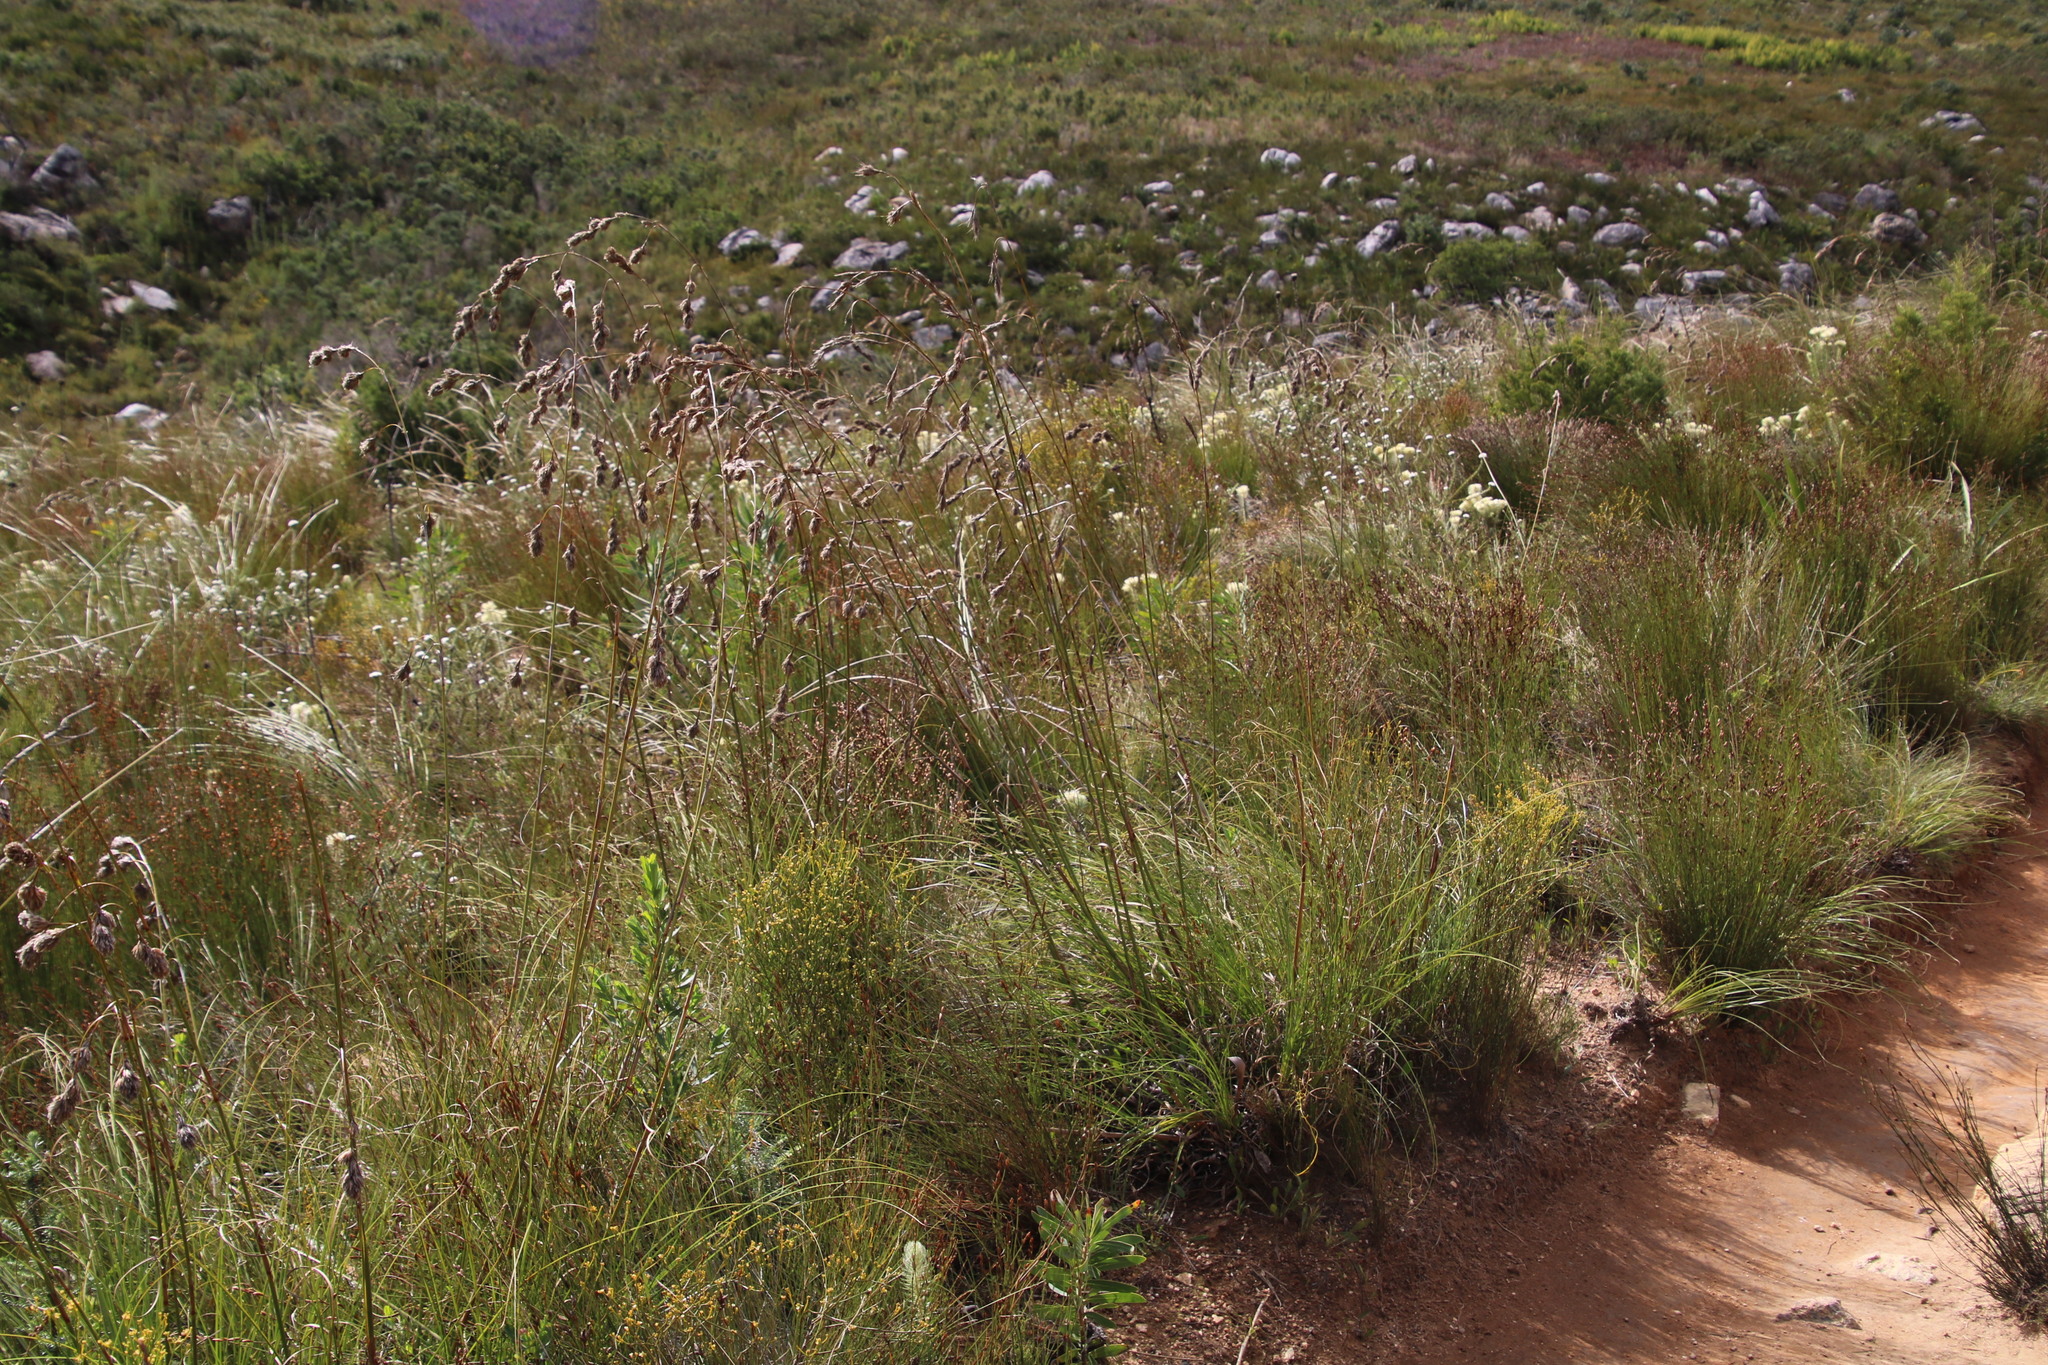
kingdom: Plantae
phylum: Tracheophyta
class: Liliopsida
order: Poales
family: Cyperaceae
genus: Tetraria
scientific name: Tetraria bromoides
